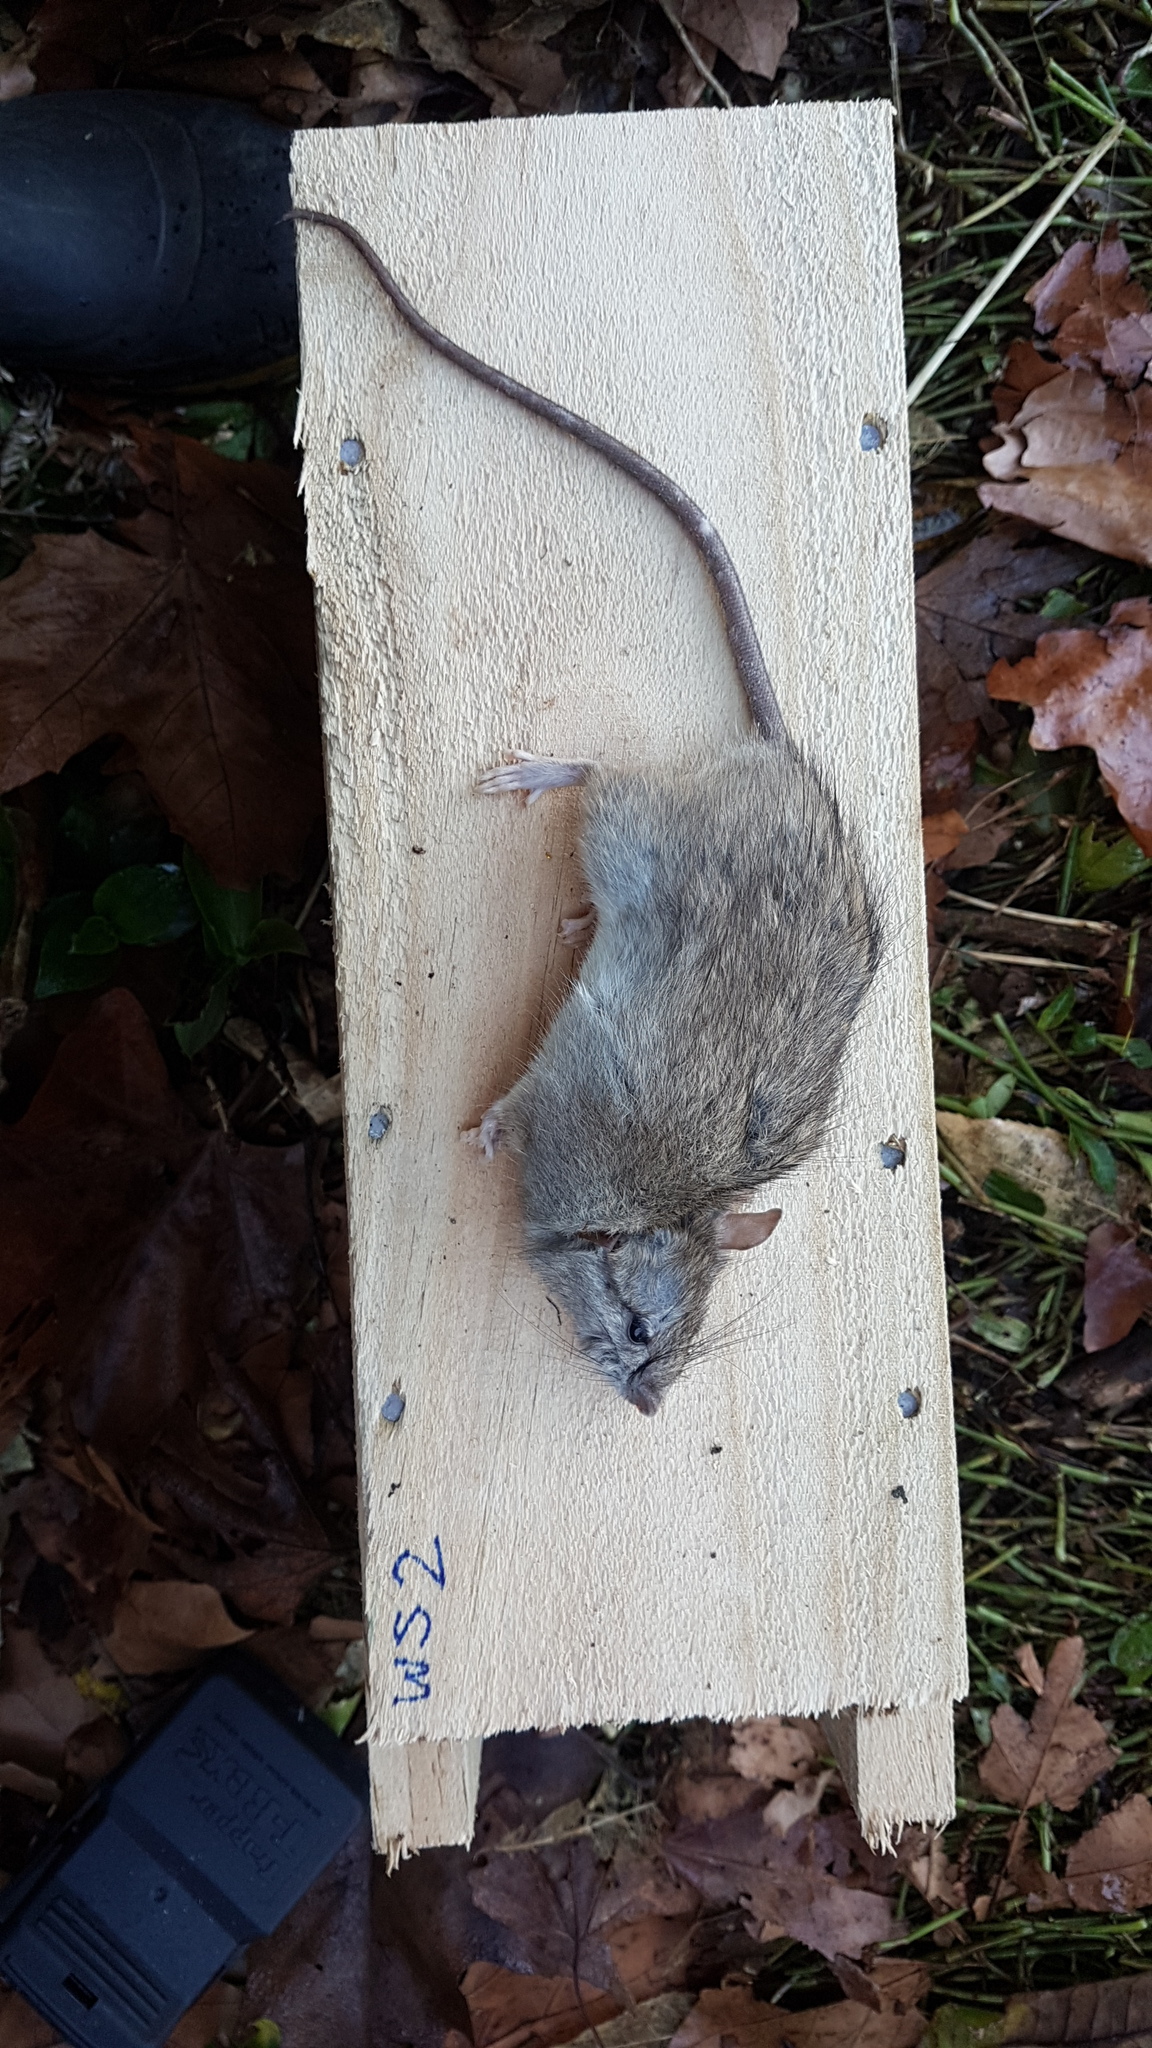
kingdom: Animalia
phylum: Chordata
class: Mammalia
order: Rodentia
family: Muridae
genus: Rattus
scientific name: Rattus rattus
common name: Black rat
